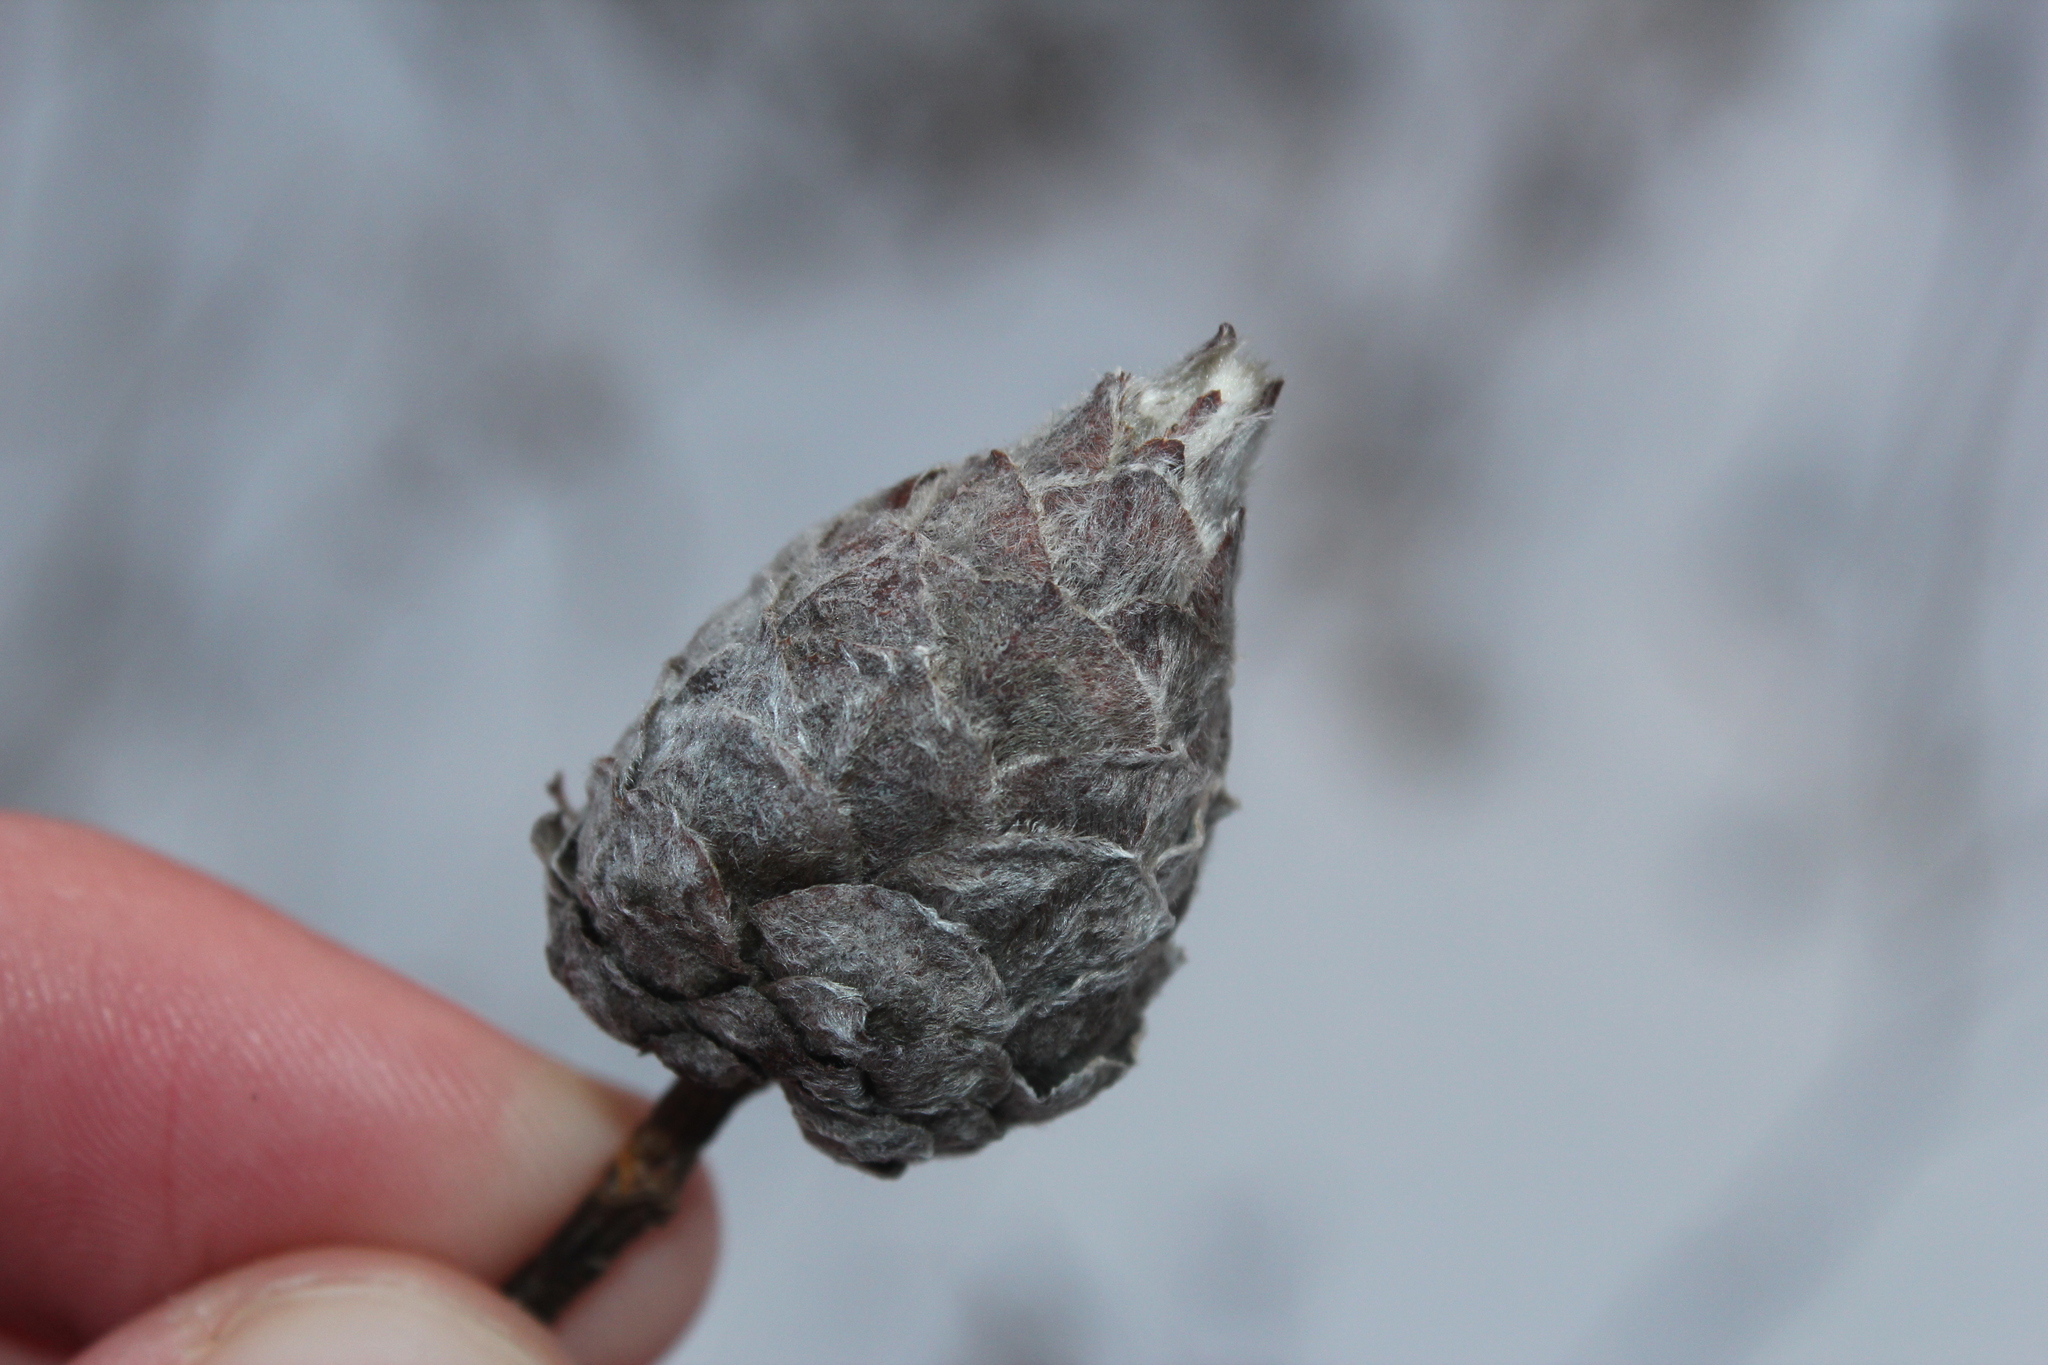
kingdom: Animalia
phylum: Arthropoda
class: Insecta
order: Diptera
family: Cecidomyiidae
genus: Rabdophaga
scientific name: Rabdophaga strobiloides
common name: Willow pinecone gall midge
